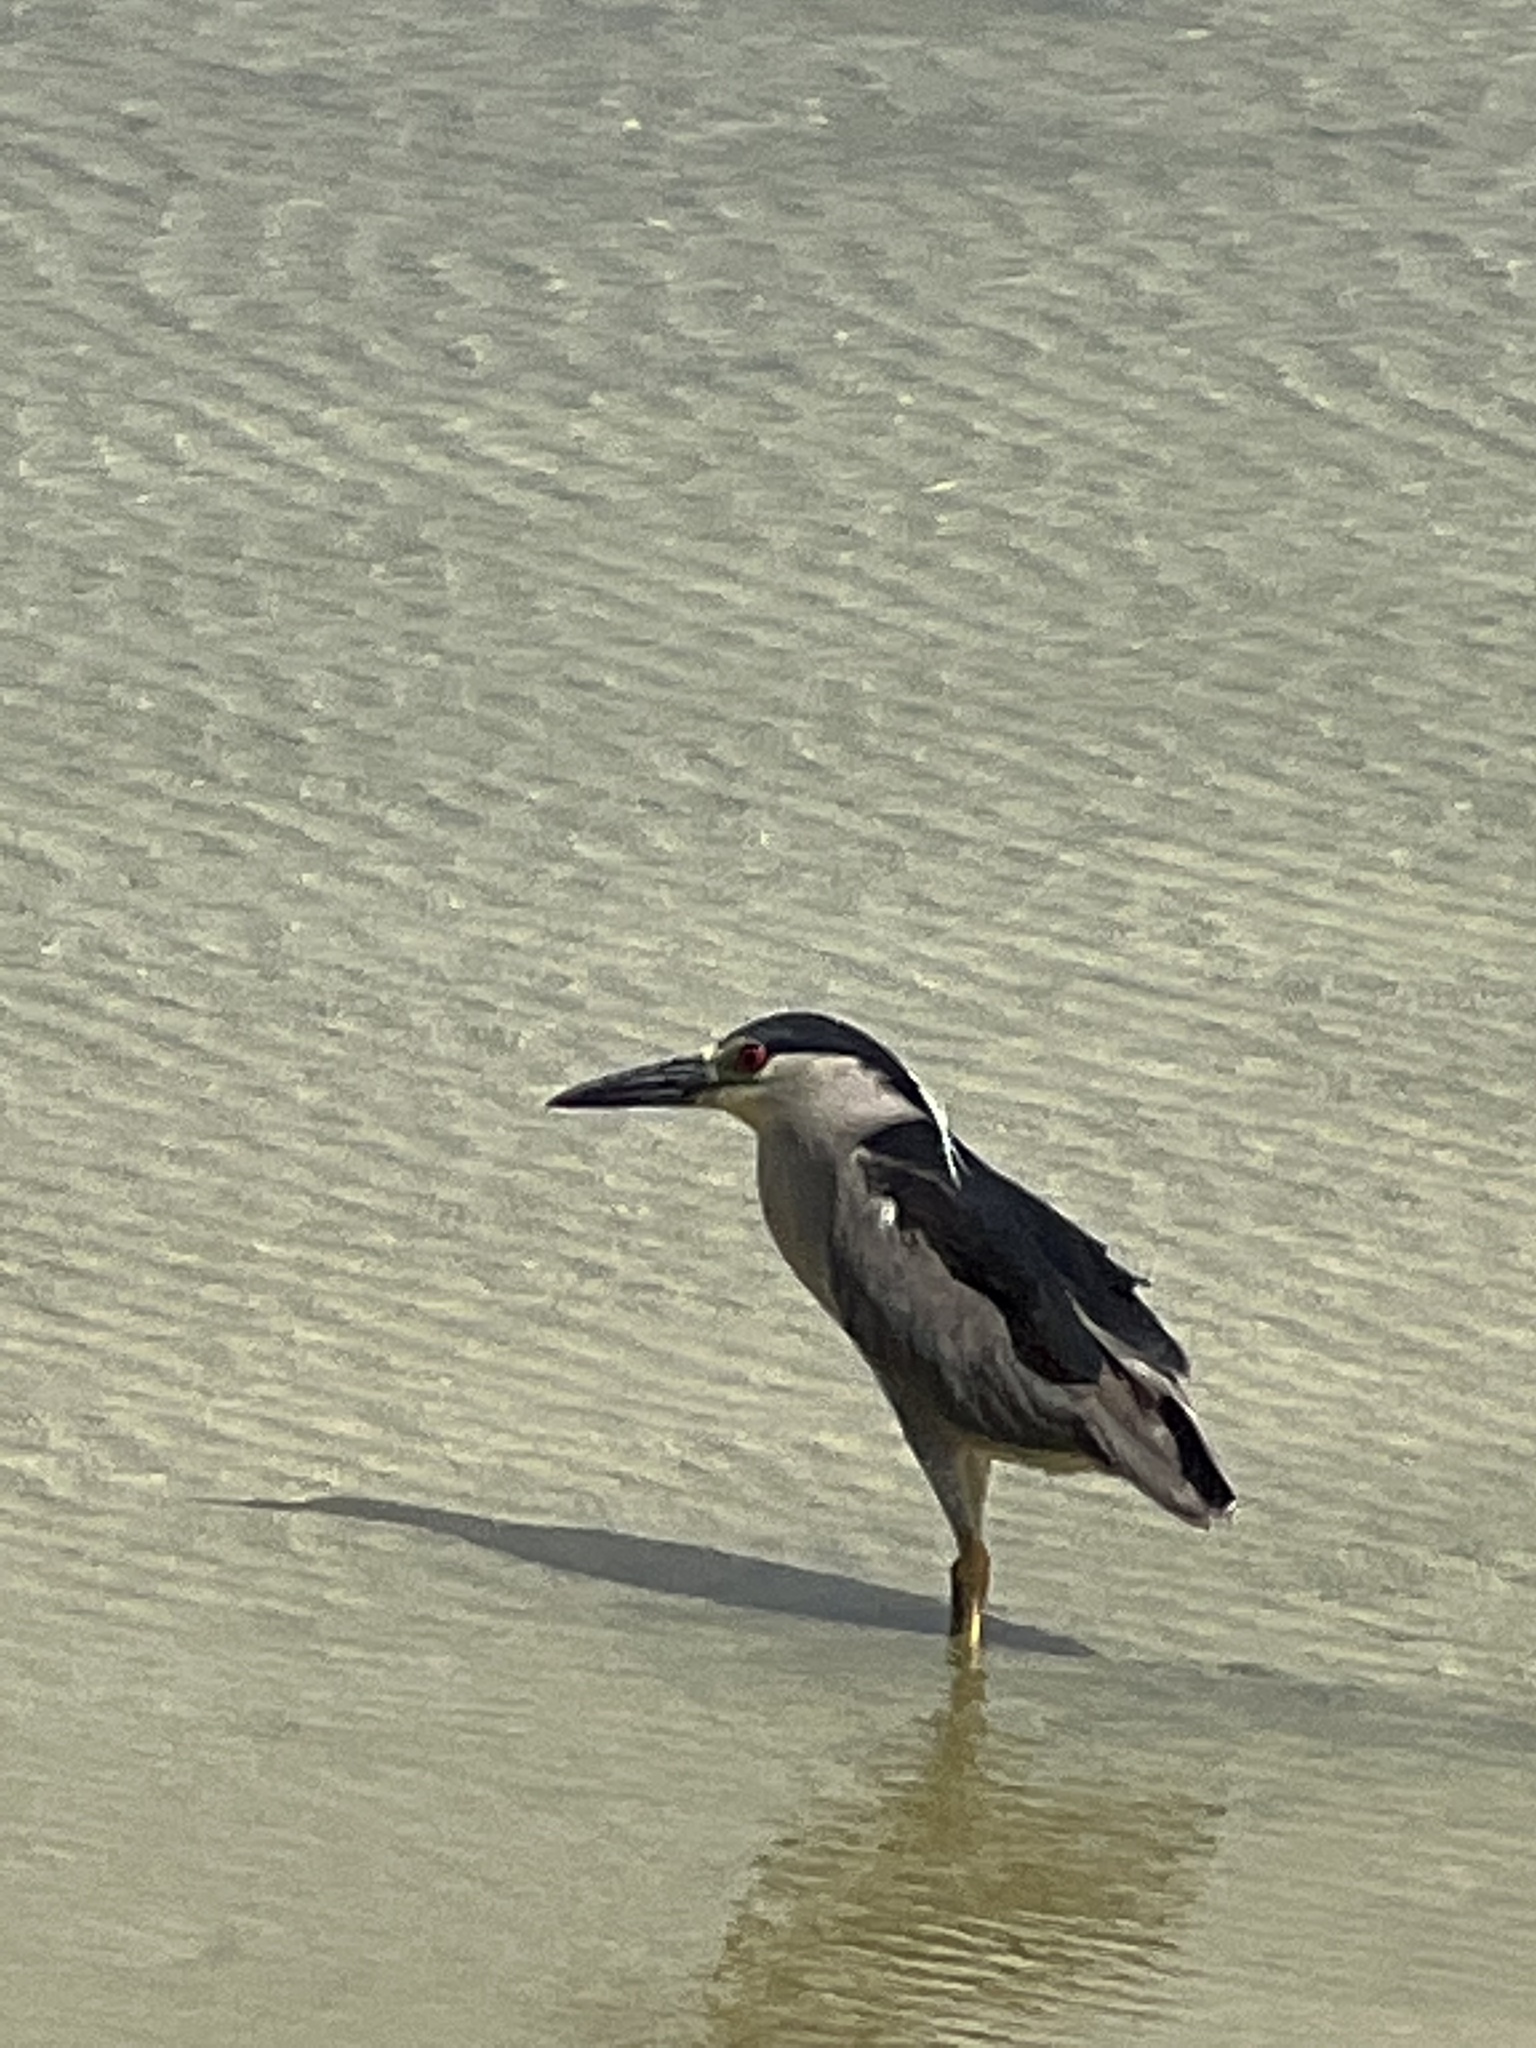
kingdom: Animalia
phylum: Chordata
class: Aves
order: Pelecaniformes
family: Ardeidae
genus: Nycticorax
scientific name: Nycticorax nycticorax
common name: Black-crowned night heron
